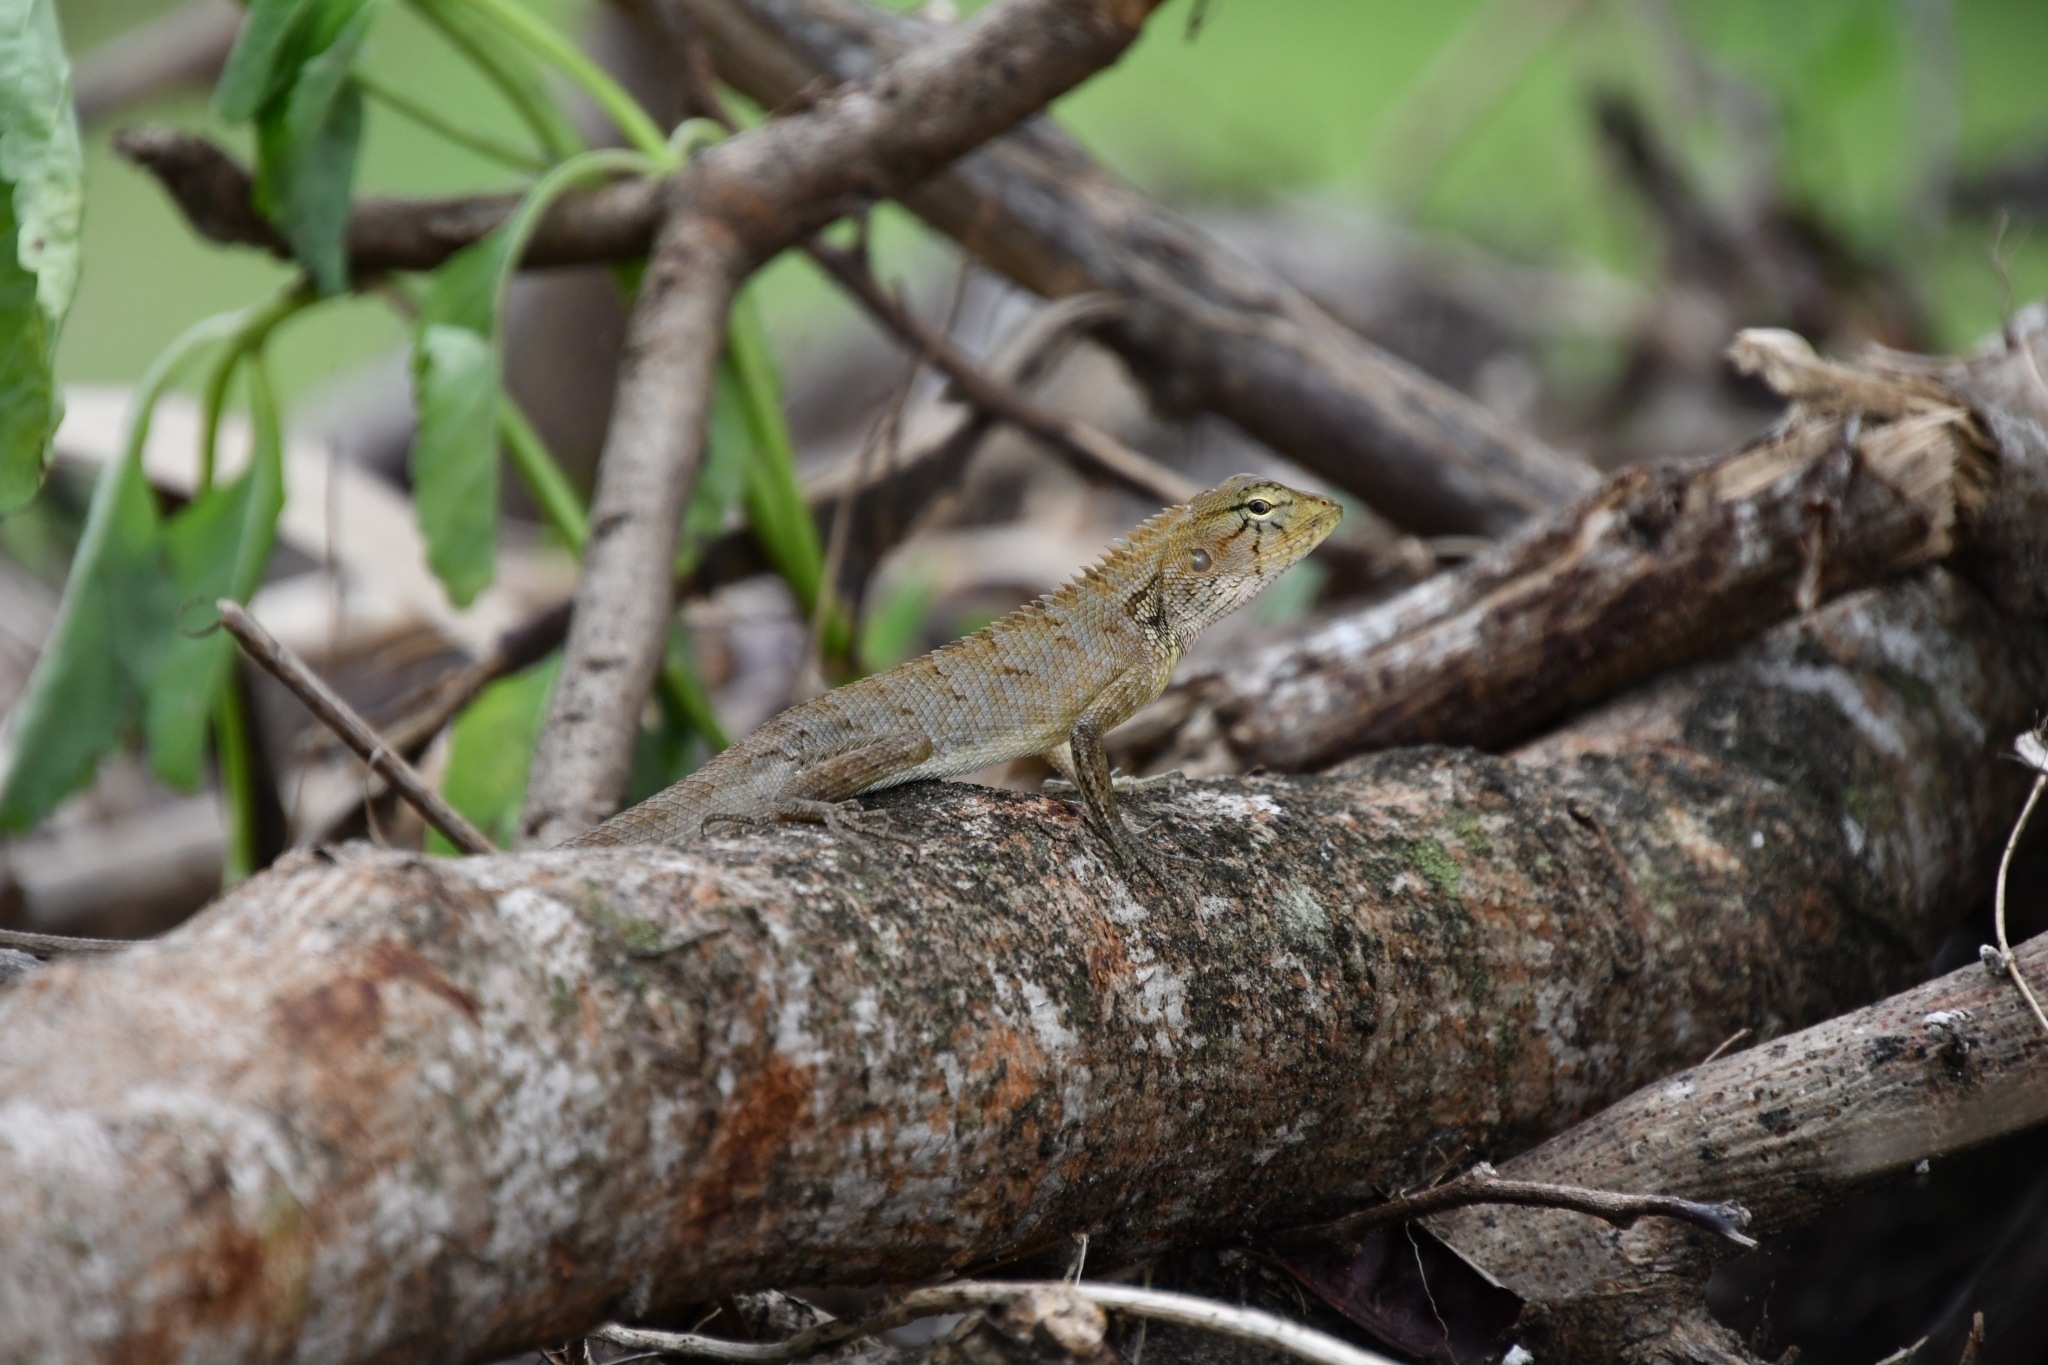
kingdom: Animalia
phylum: Chordata
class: Squamata
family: Agamidae
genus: Calotes
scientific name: Calotes versicolor
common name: Oriental garden lizard
